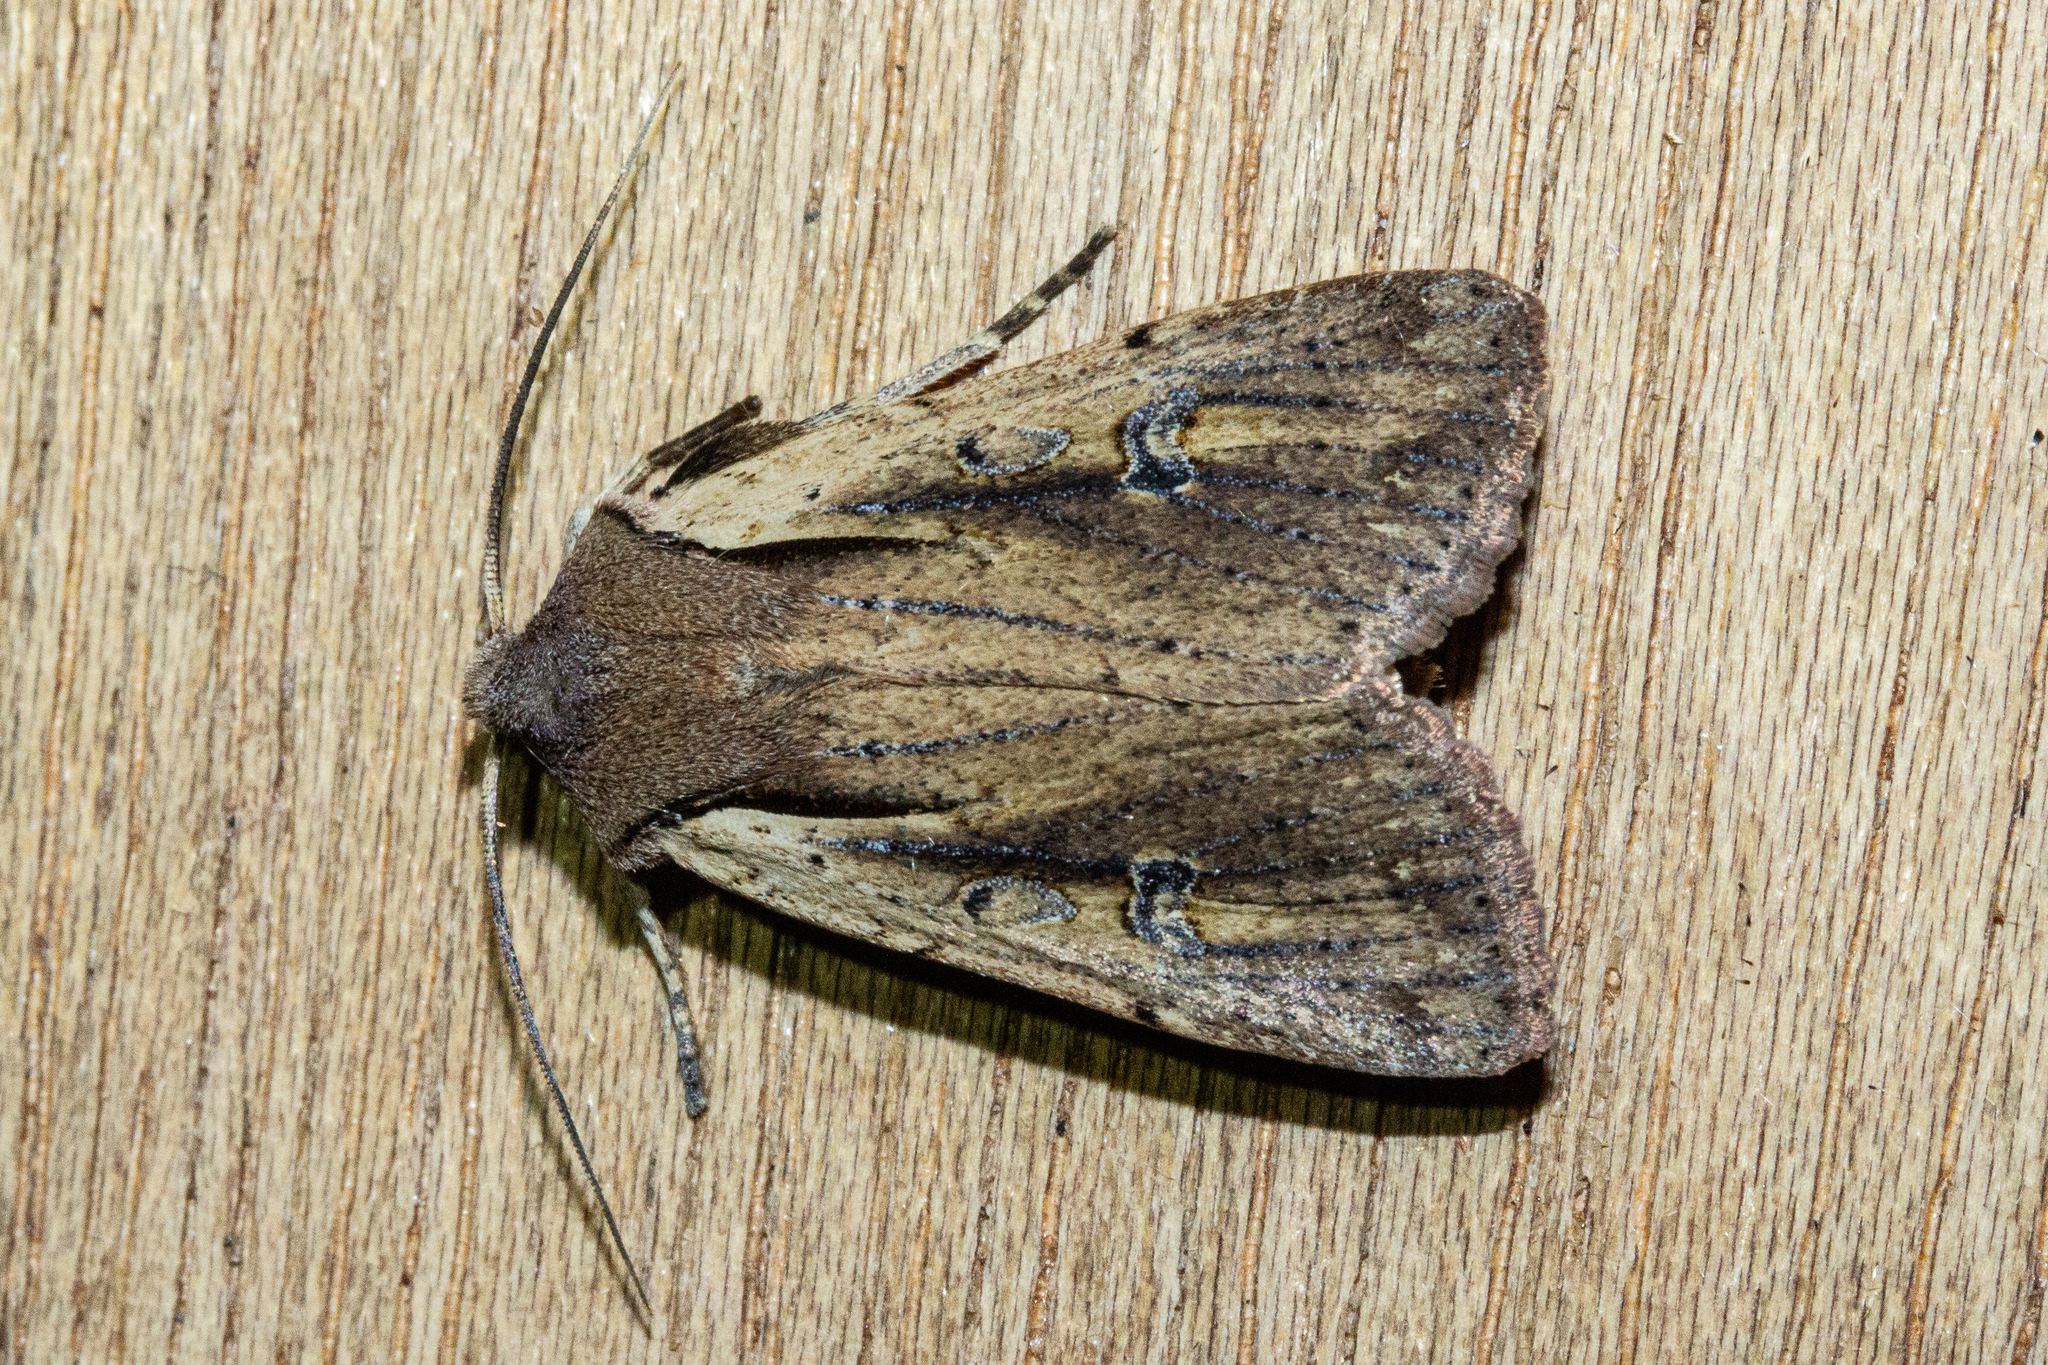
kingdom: Animalia
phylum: Arthropoda
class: Insecta
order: Lepidoptera
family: Noctuidae
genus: Ichneutica
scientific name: Ichneutica atristriga
